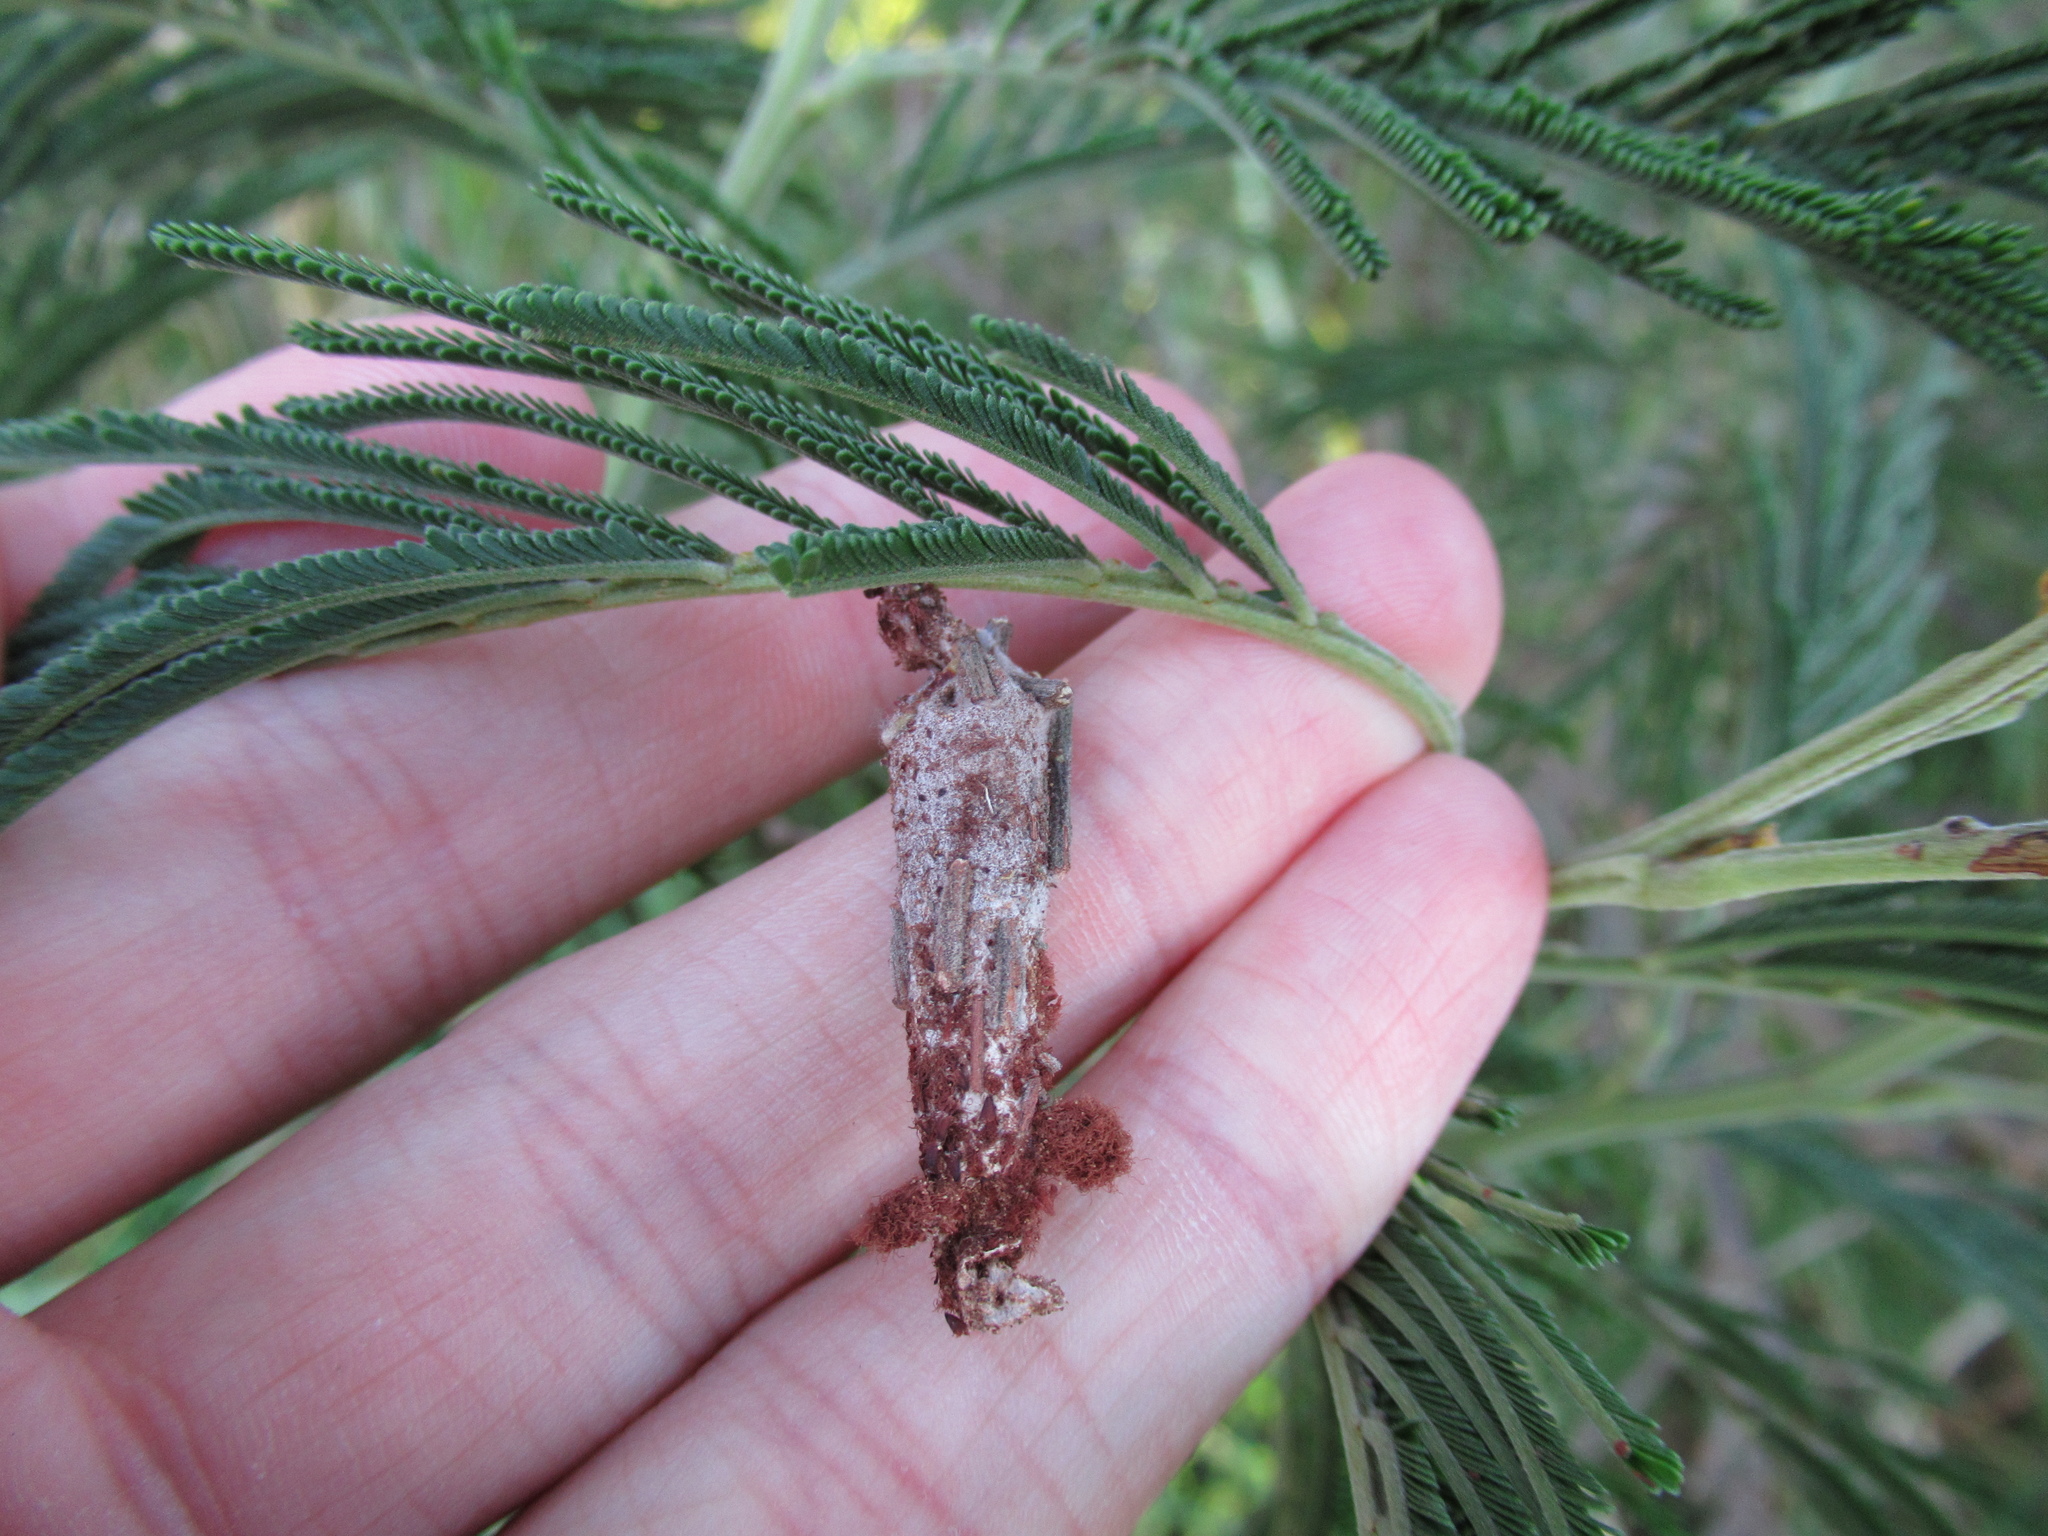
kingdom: Animalia
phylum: Arthropoda
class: Insecta
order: Lepidoptera
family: Psychidae
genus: Liothula
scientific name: Liothula omnivora
